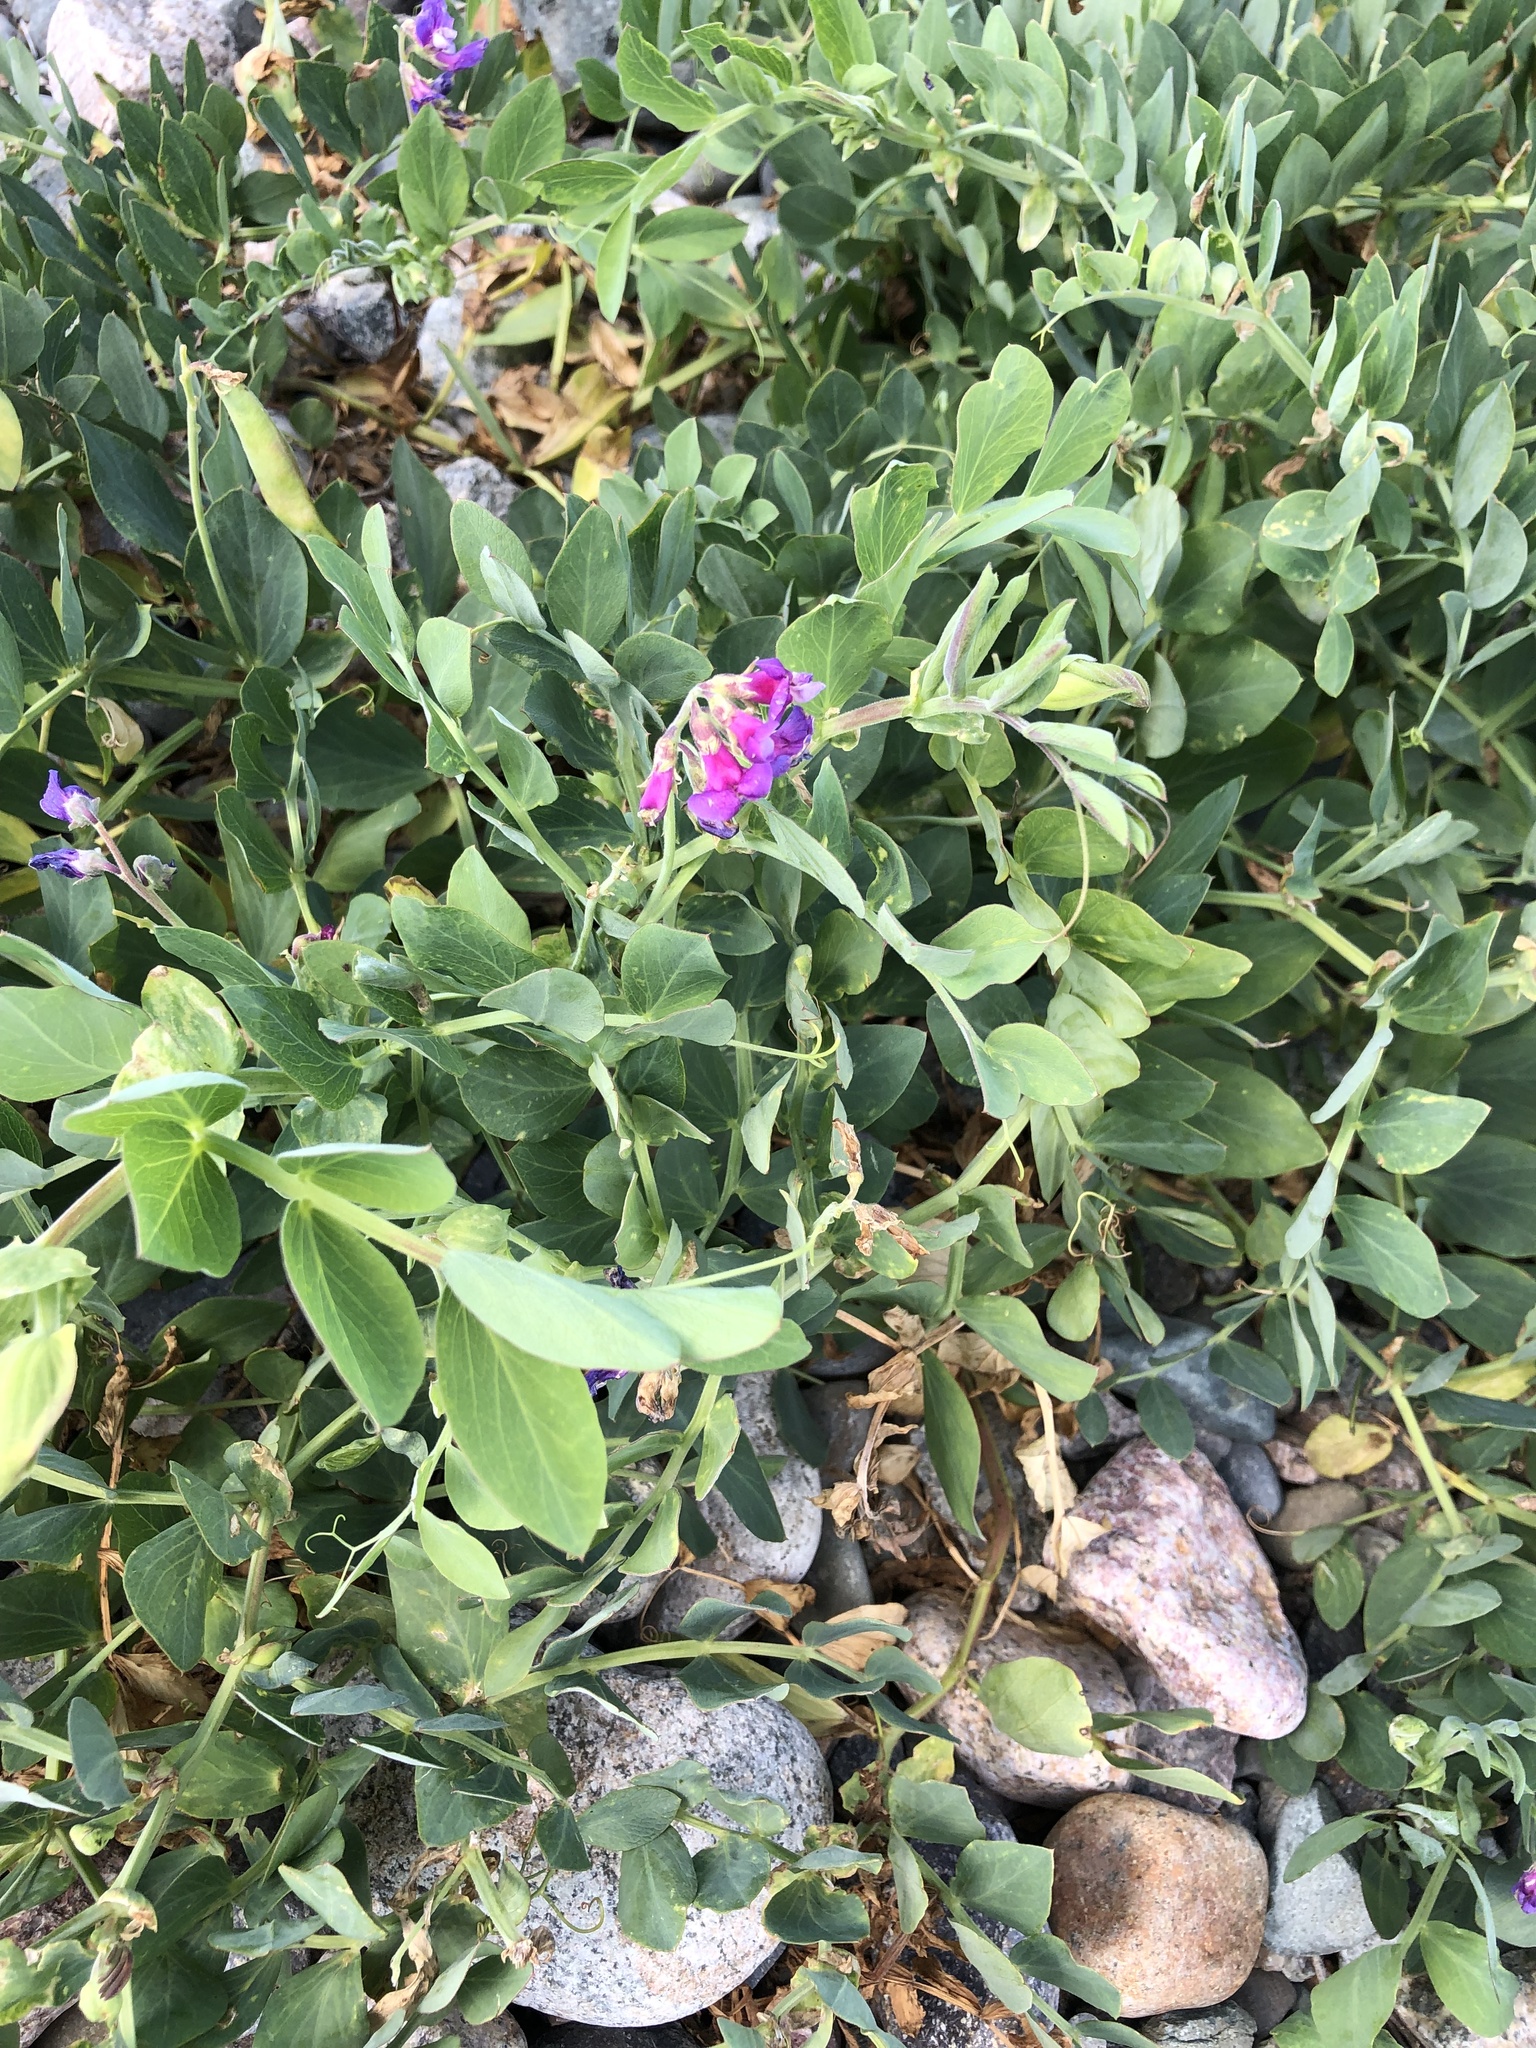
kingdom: Plantae
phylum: Tracheophyta
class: Magnoliopsida
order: Fabales
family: Fabaceae
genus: Lathyrus
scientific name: Lathyrus japonicus
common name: Sea pea
